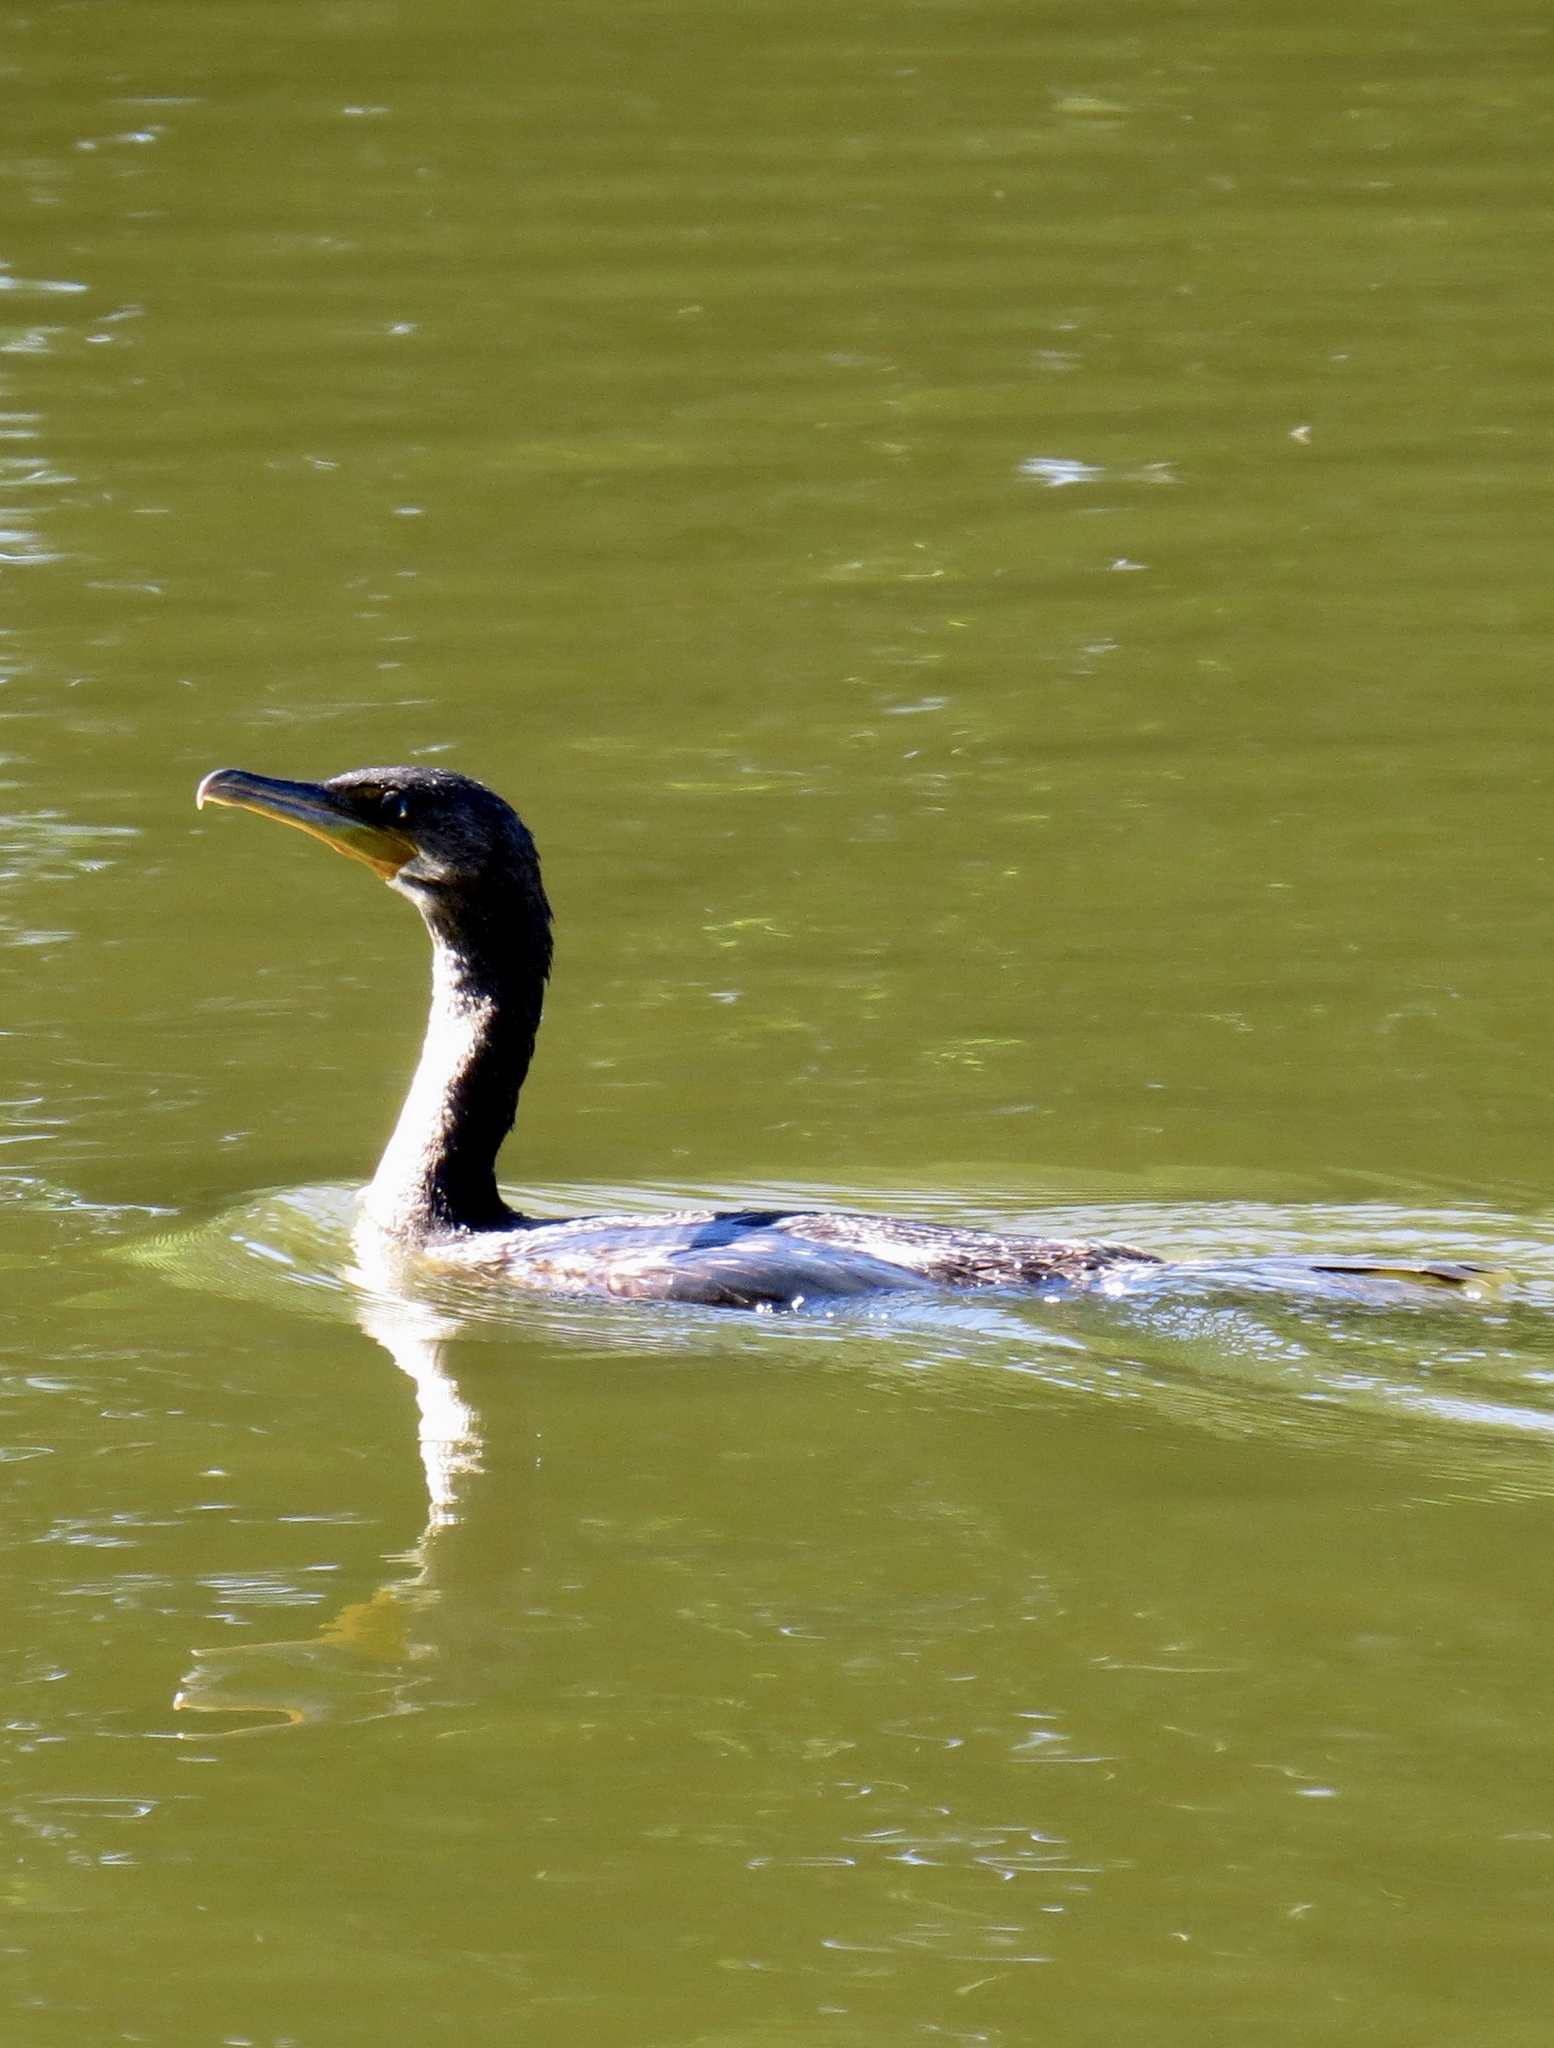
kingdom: Animalia
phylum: Chordata
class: Aves
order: Suliformes
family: Phalacrocoracidae
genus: Phalacrocorax
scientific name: Phalacrocorax auritus
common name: Double-crested cormorant
